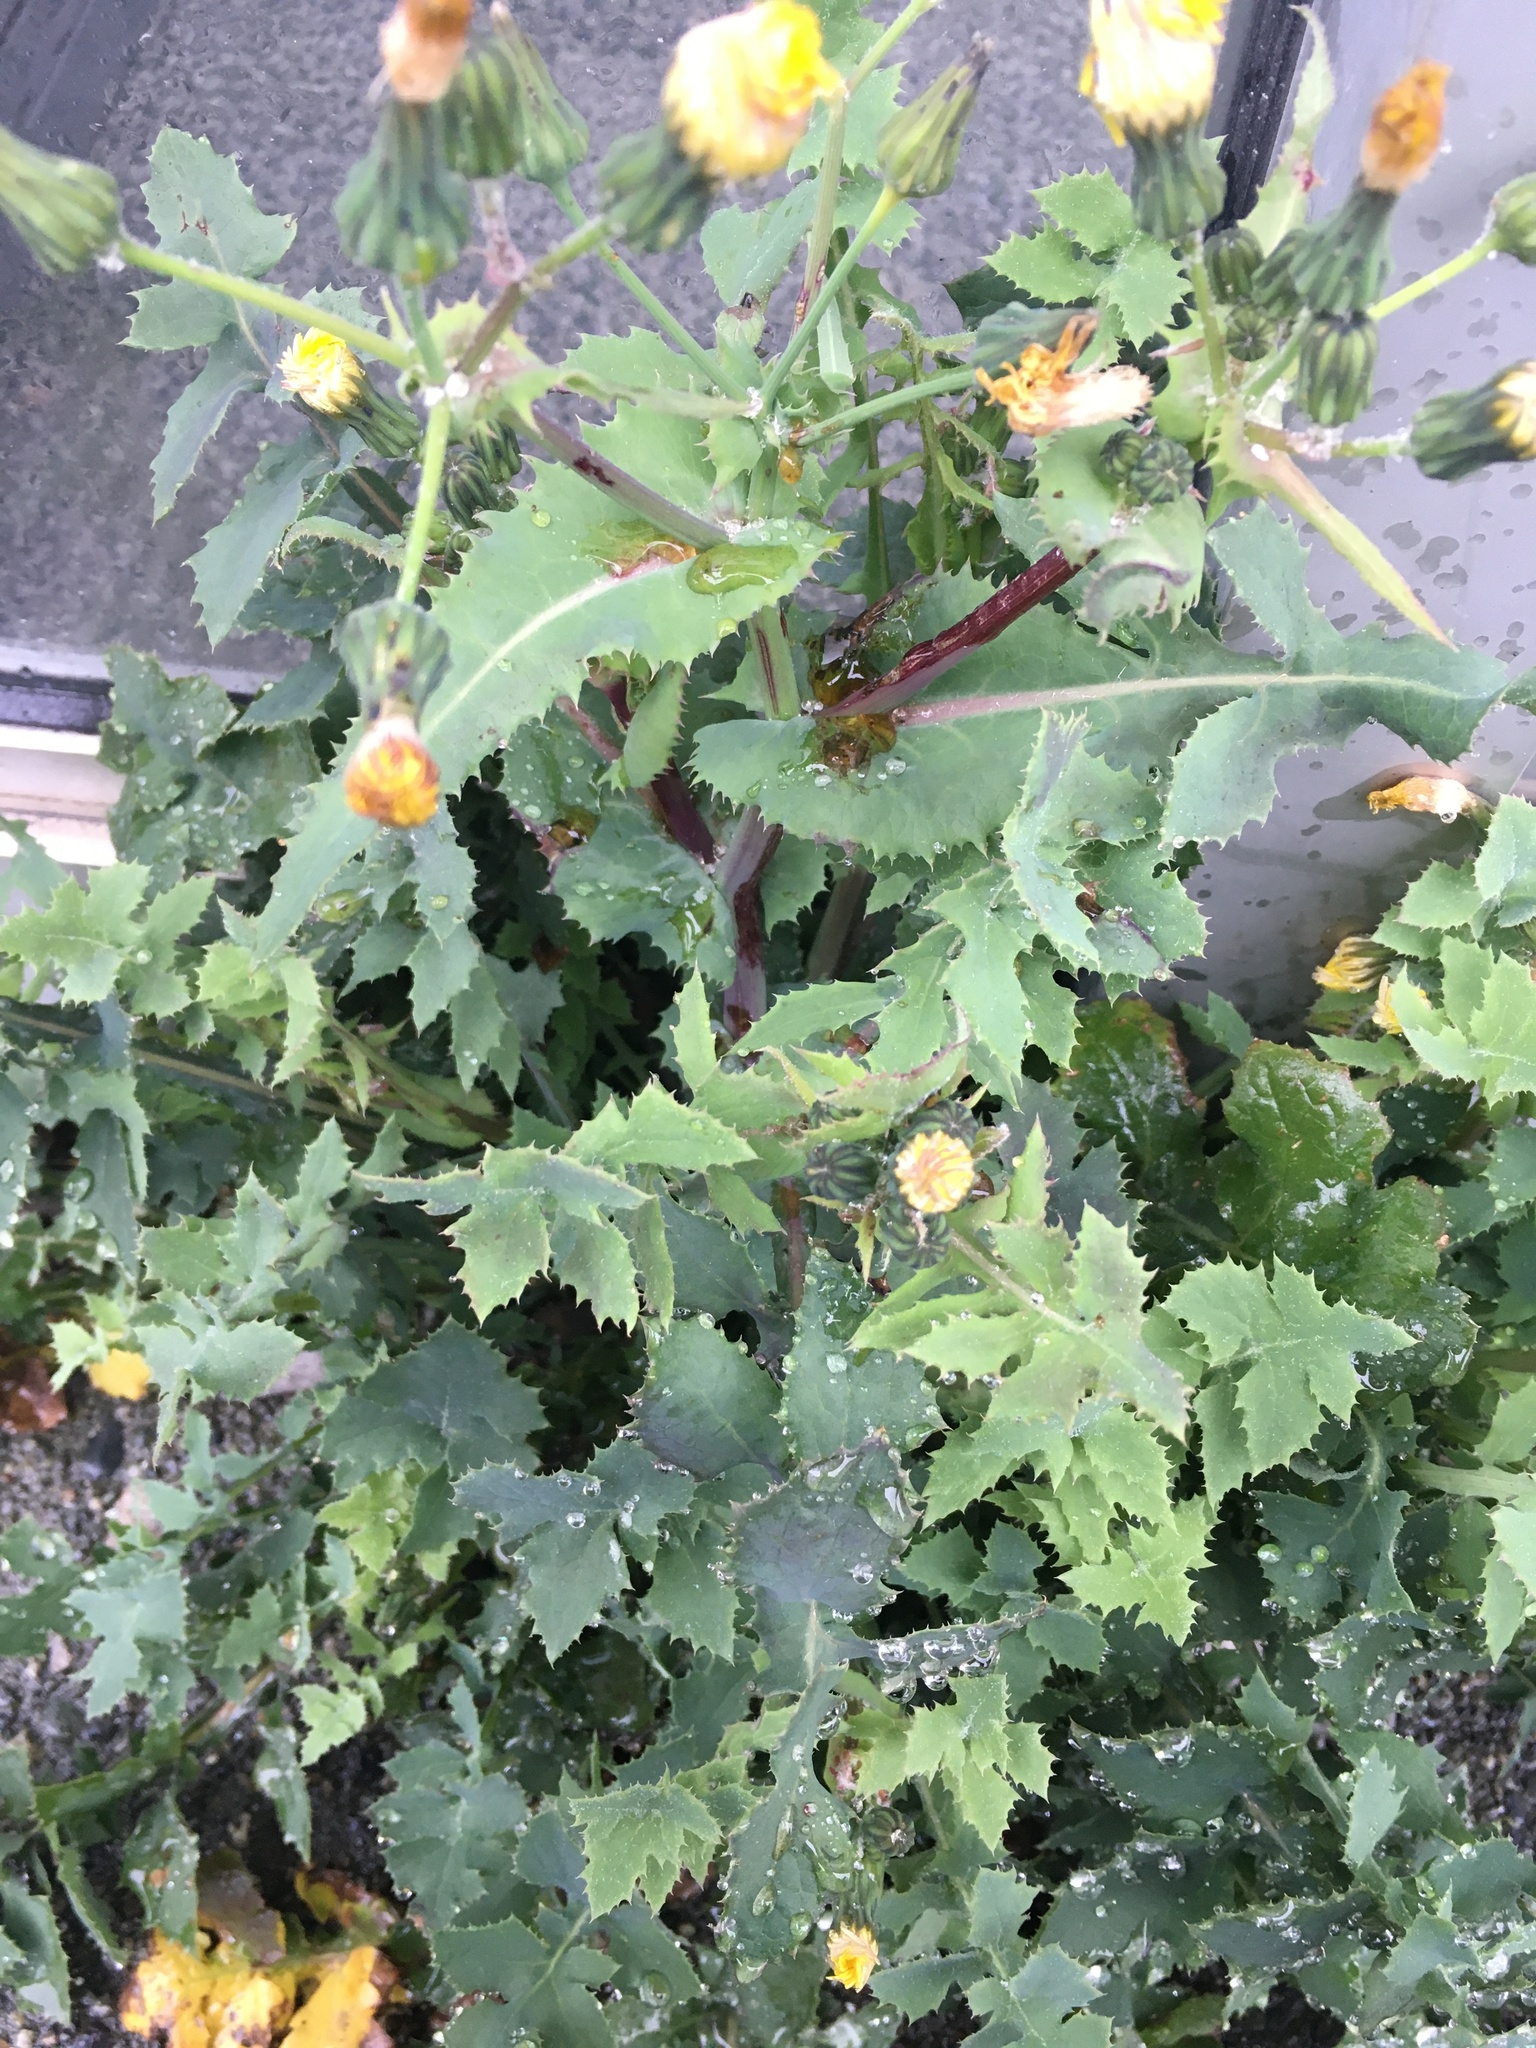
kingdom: Plantae
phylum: Tracheophyta
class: Magnoliopsida
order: Asterales
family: Asteraceae
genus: Sonchus
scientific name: Sonchus oleraceus
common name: Common sowthistle
